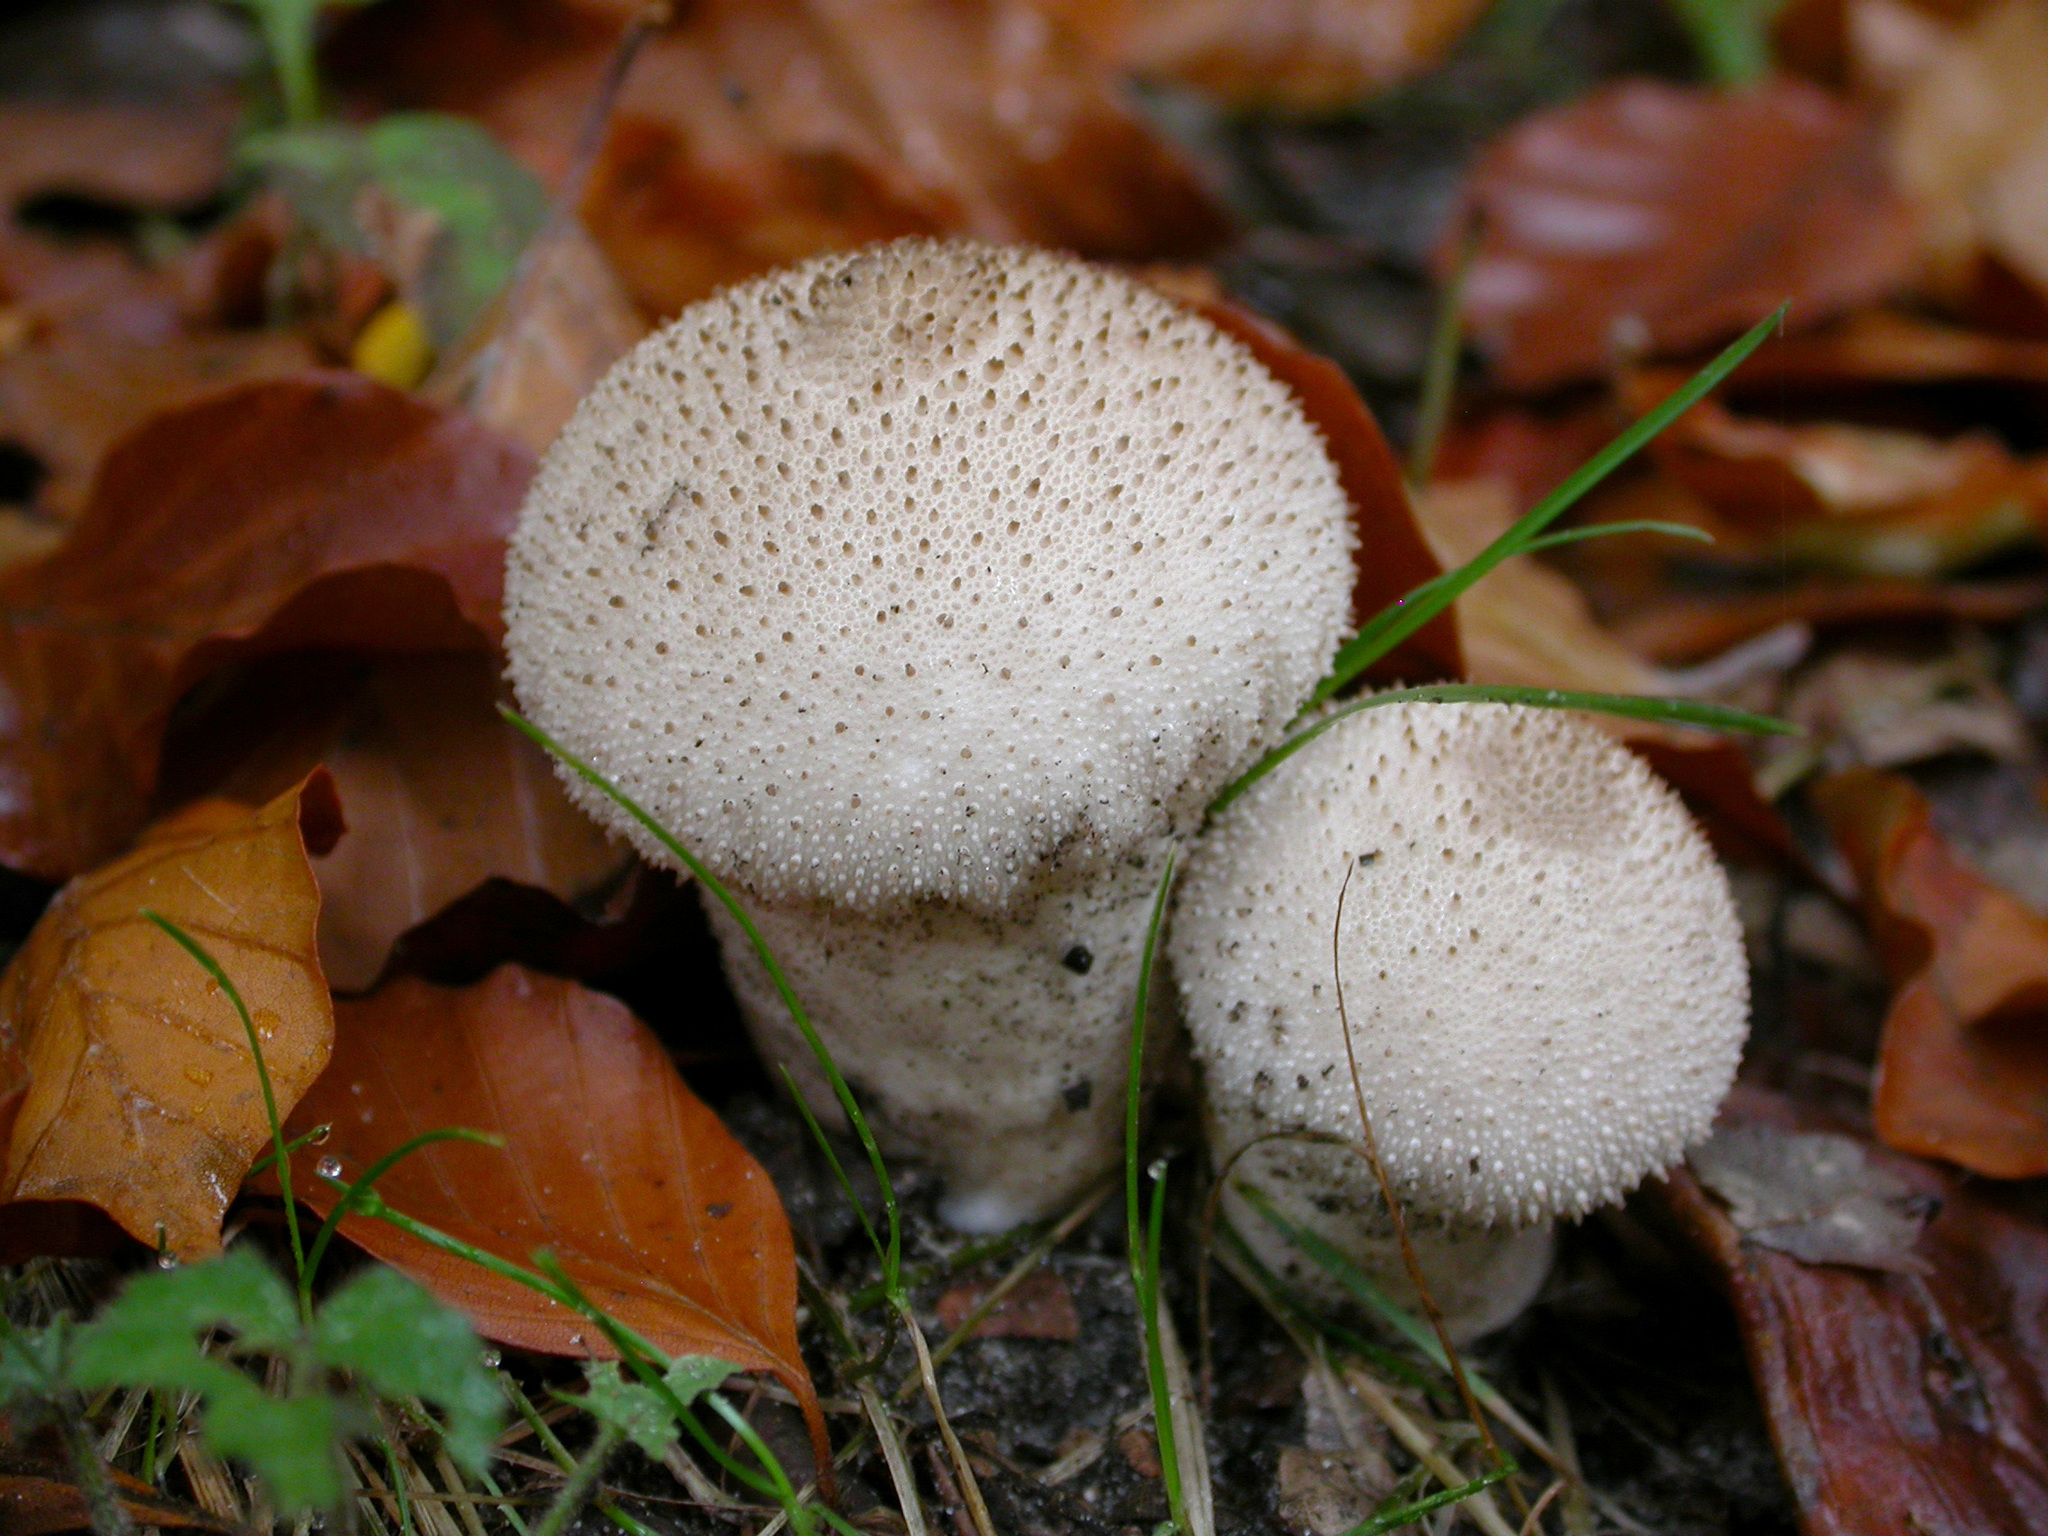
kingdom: Fungi
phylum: Basidiomycota
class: Agaricomycetes
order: Agaricales
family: Lycoperdaceae
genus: Lycoperdon
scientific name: Lycoperdon perlatum
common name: Common puffball
